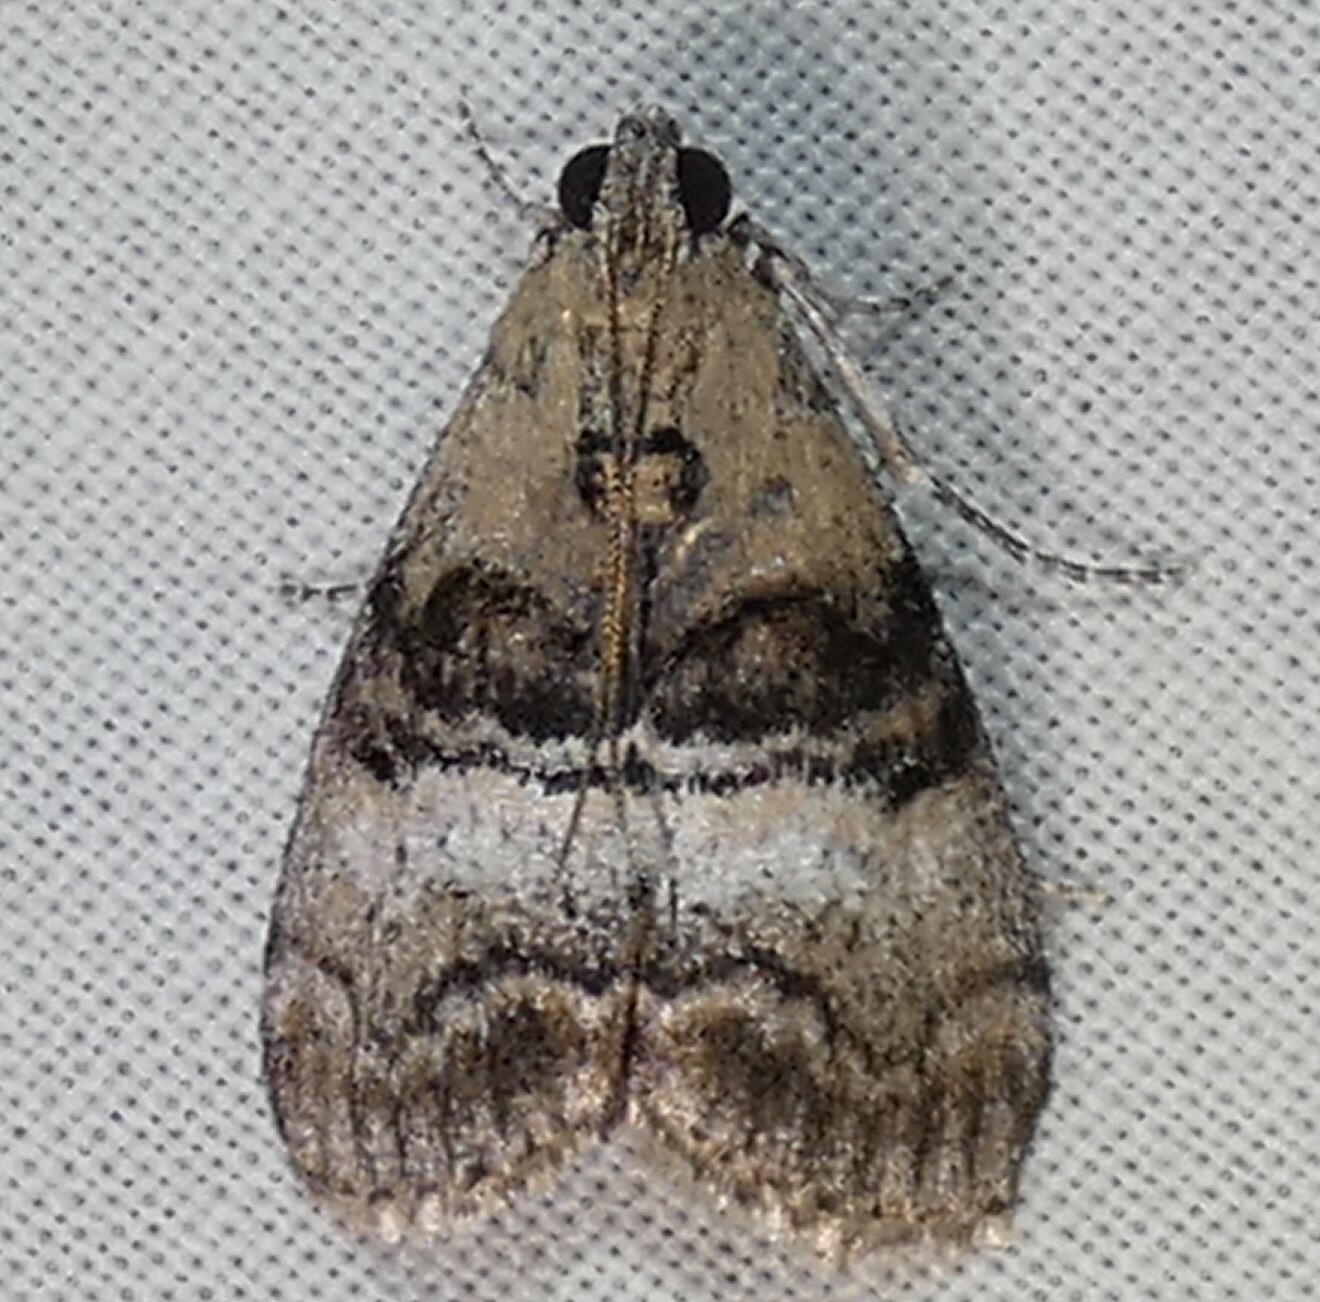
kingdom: Animalia
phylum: Arthropoda
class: Insecta
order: Lepidoptera
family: Pyralidae
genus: Pococera
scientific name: Pococera asperatella
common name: Maple webworm moth
